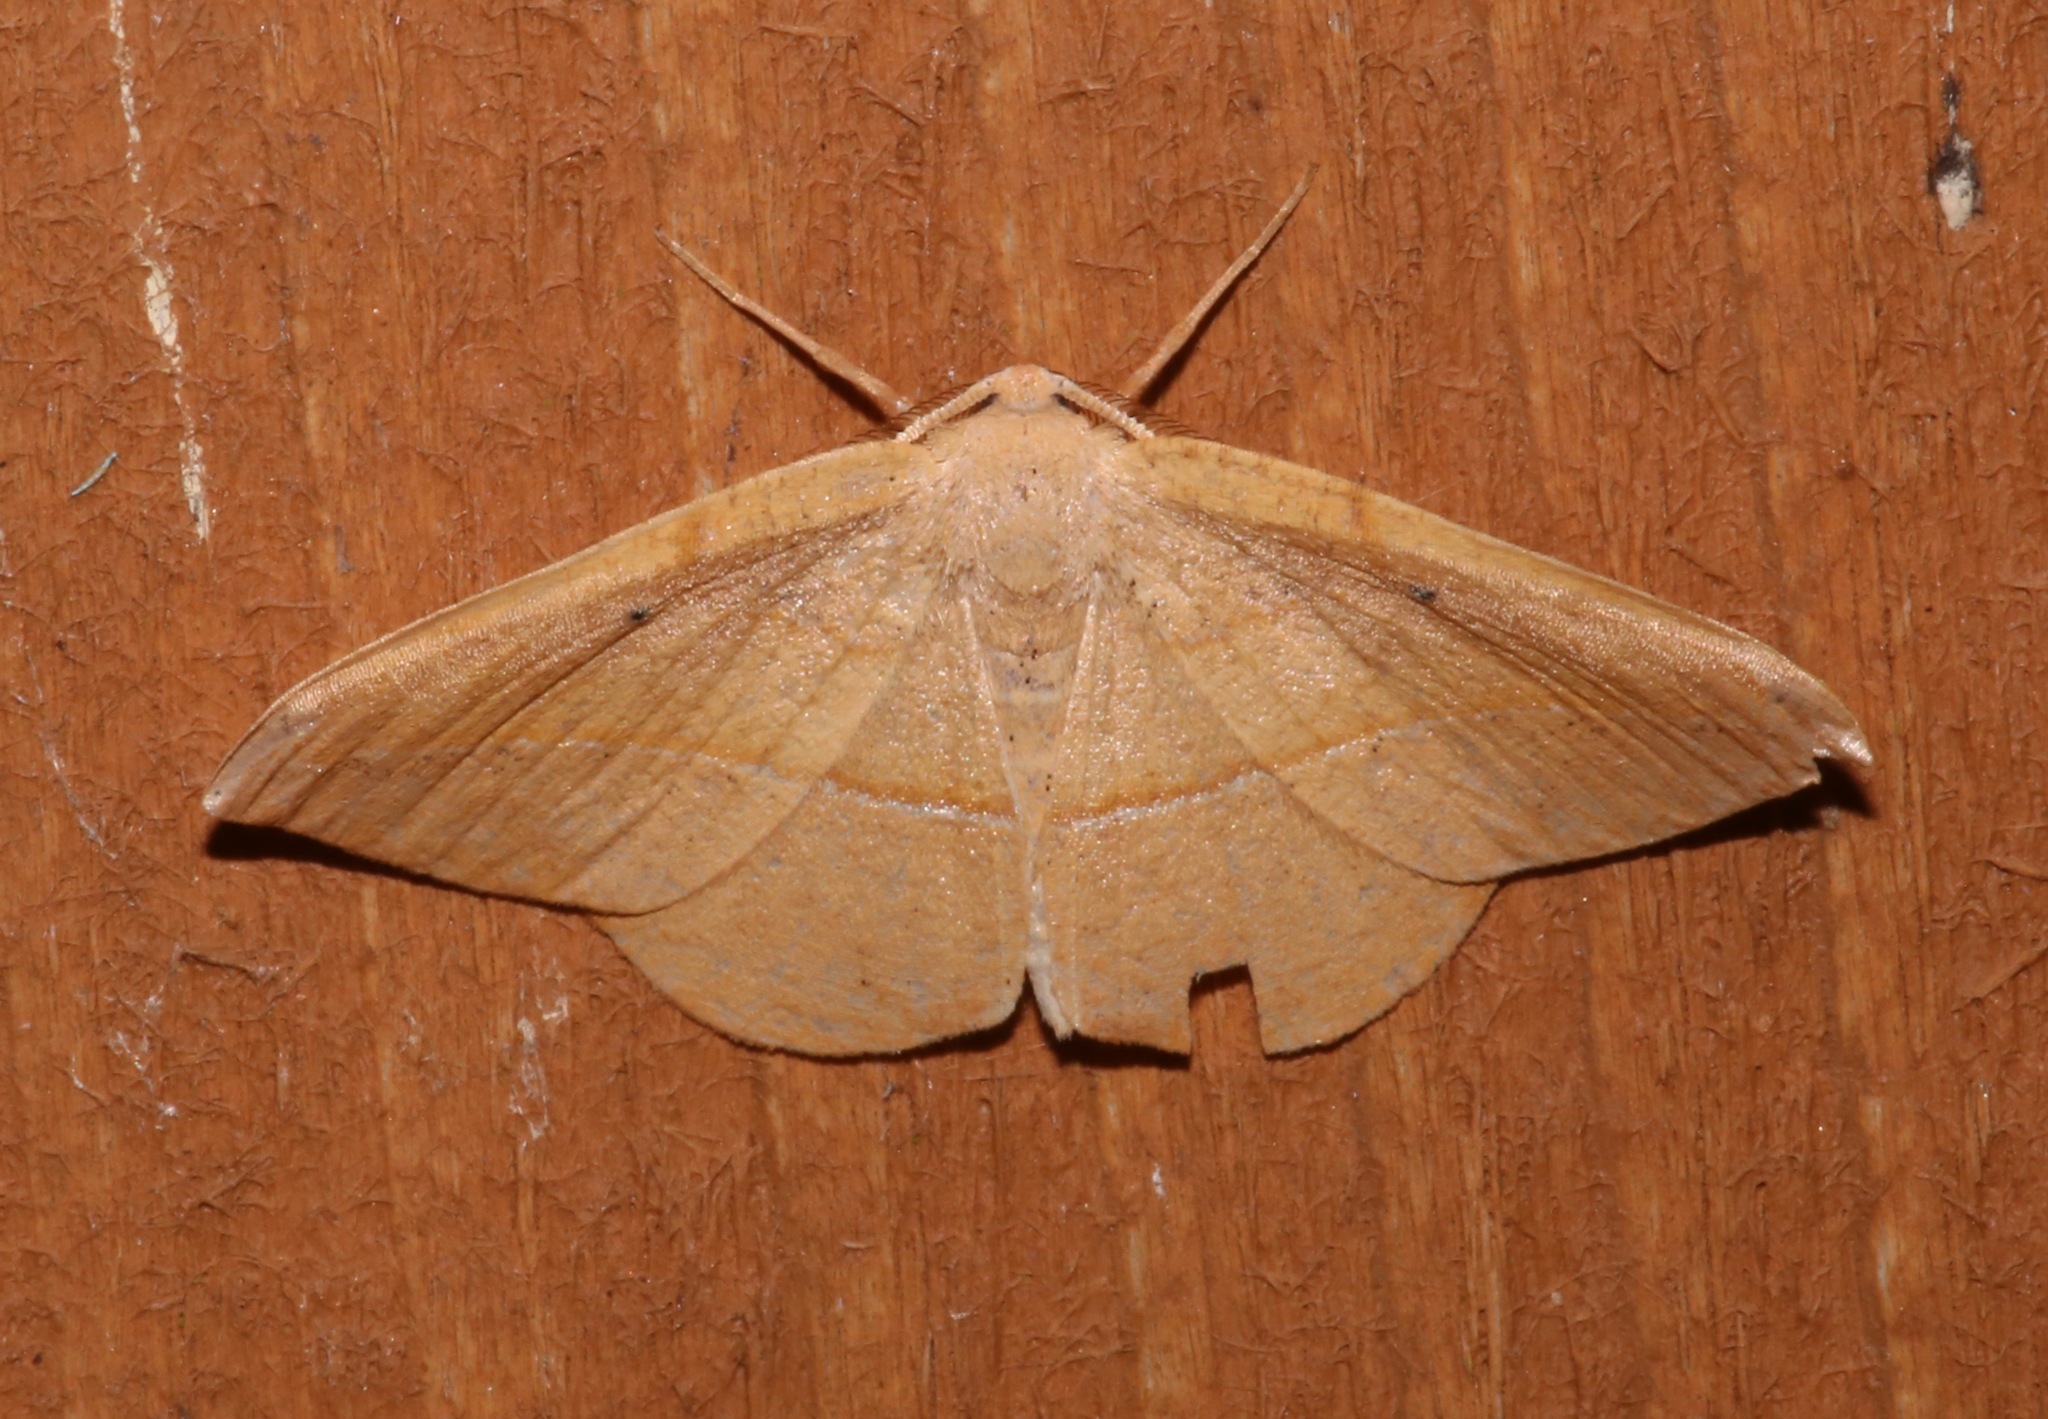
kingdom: Animalia
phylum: Arthropoda
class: Insecta
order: Lepidoptera
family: Geometridae
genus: Patalene
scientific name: Patalene olyzonaria
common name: Juniper geometer moth
